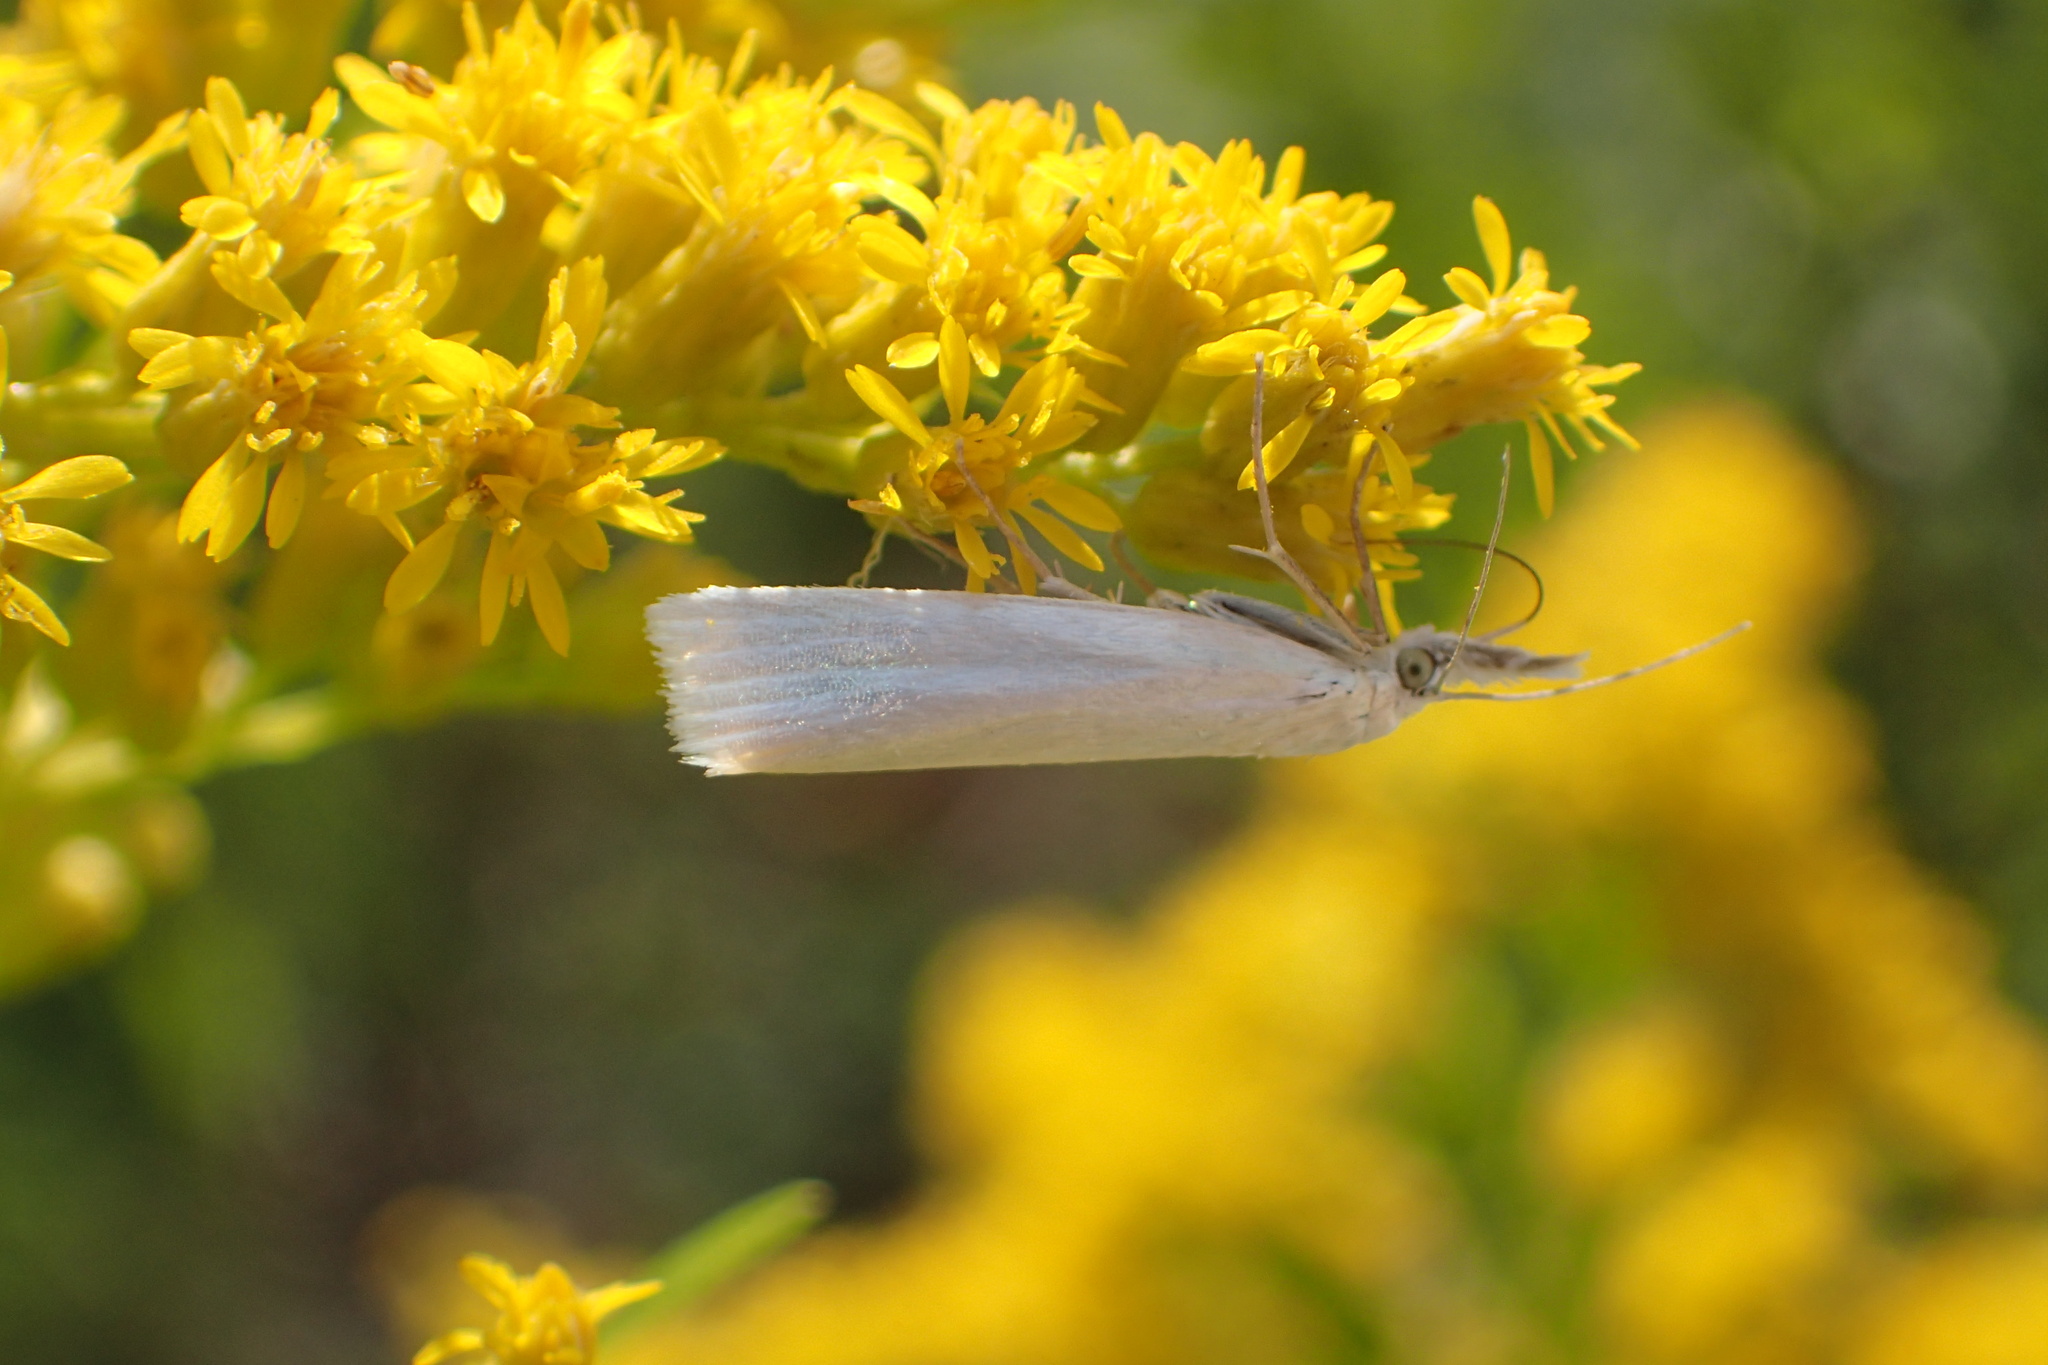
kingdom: Animalia
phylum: Arthropoda
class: Insecta
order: Lepidoptera
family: Crambidae
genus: Crambus
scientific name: Crambus perlellus
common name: Yellow satin veneer
